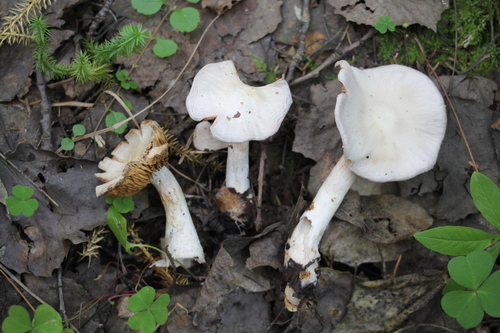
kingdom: Fungi
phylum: Basidiomycota
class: Agaricomycetes
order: Agaricales
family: Cortinariaceae
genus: Cortinarius
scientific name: Cortinarius alboviolaceus
